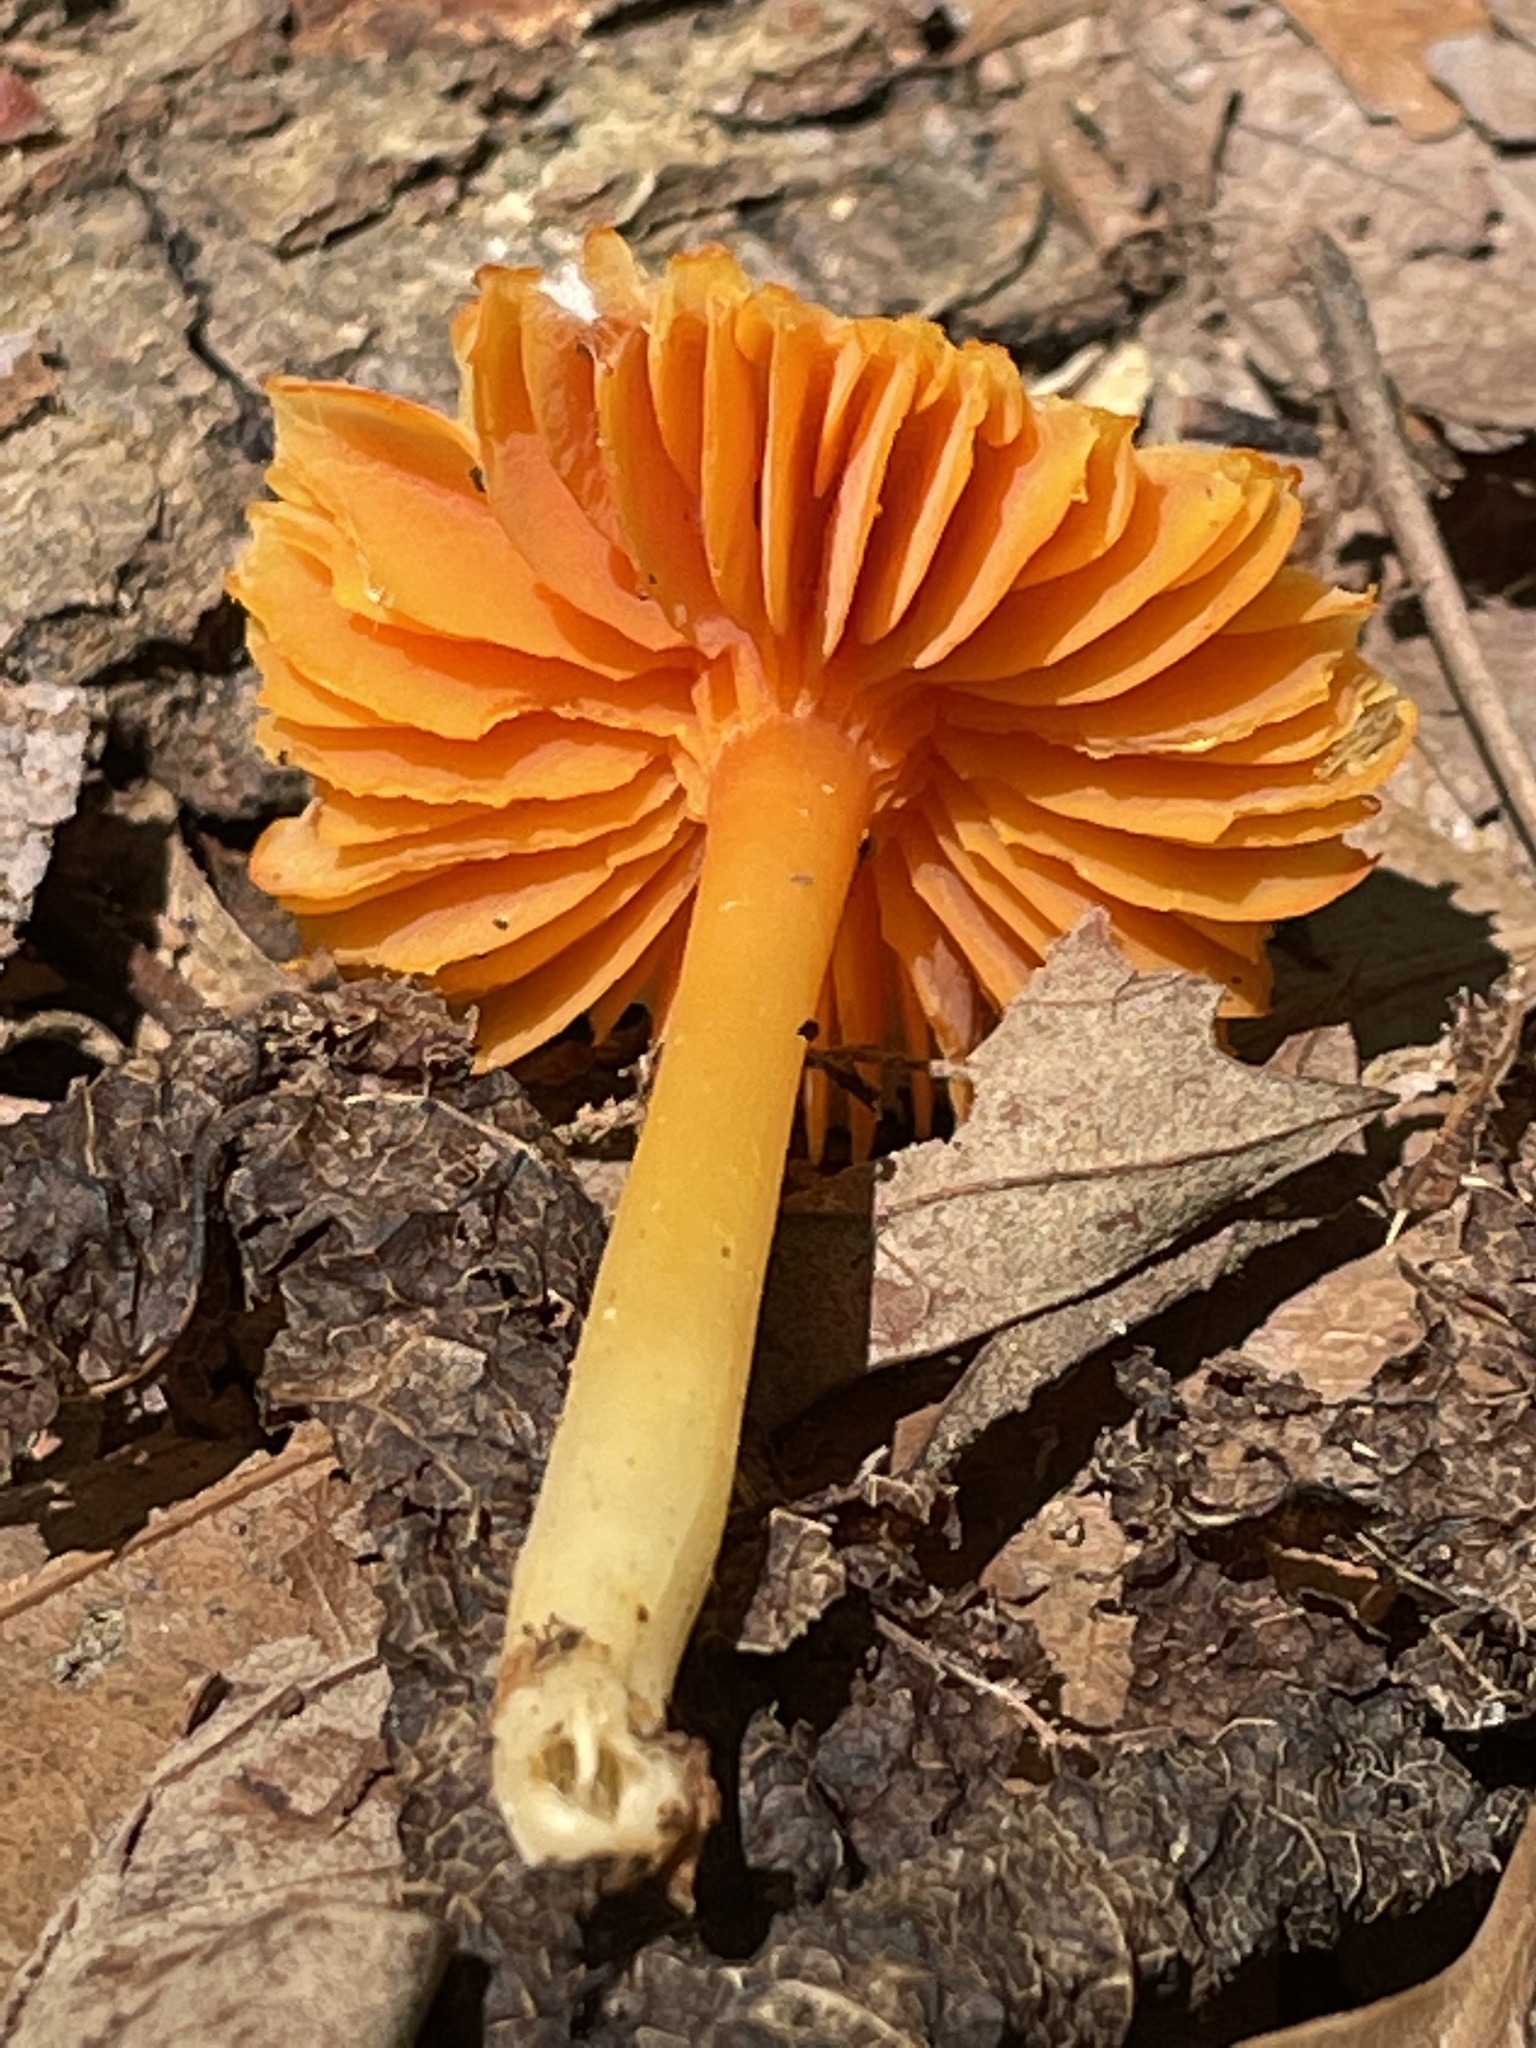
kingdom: Fungi
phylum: Basidiomycota
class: Agaricomycetes
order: Agaricales
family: Hygrophoraceae
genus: Humidicutis
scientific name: Humidicutis marginata
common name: Orange gilled waxcap
